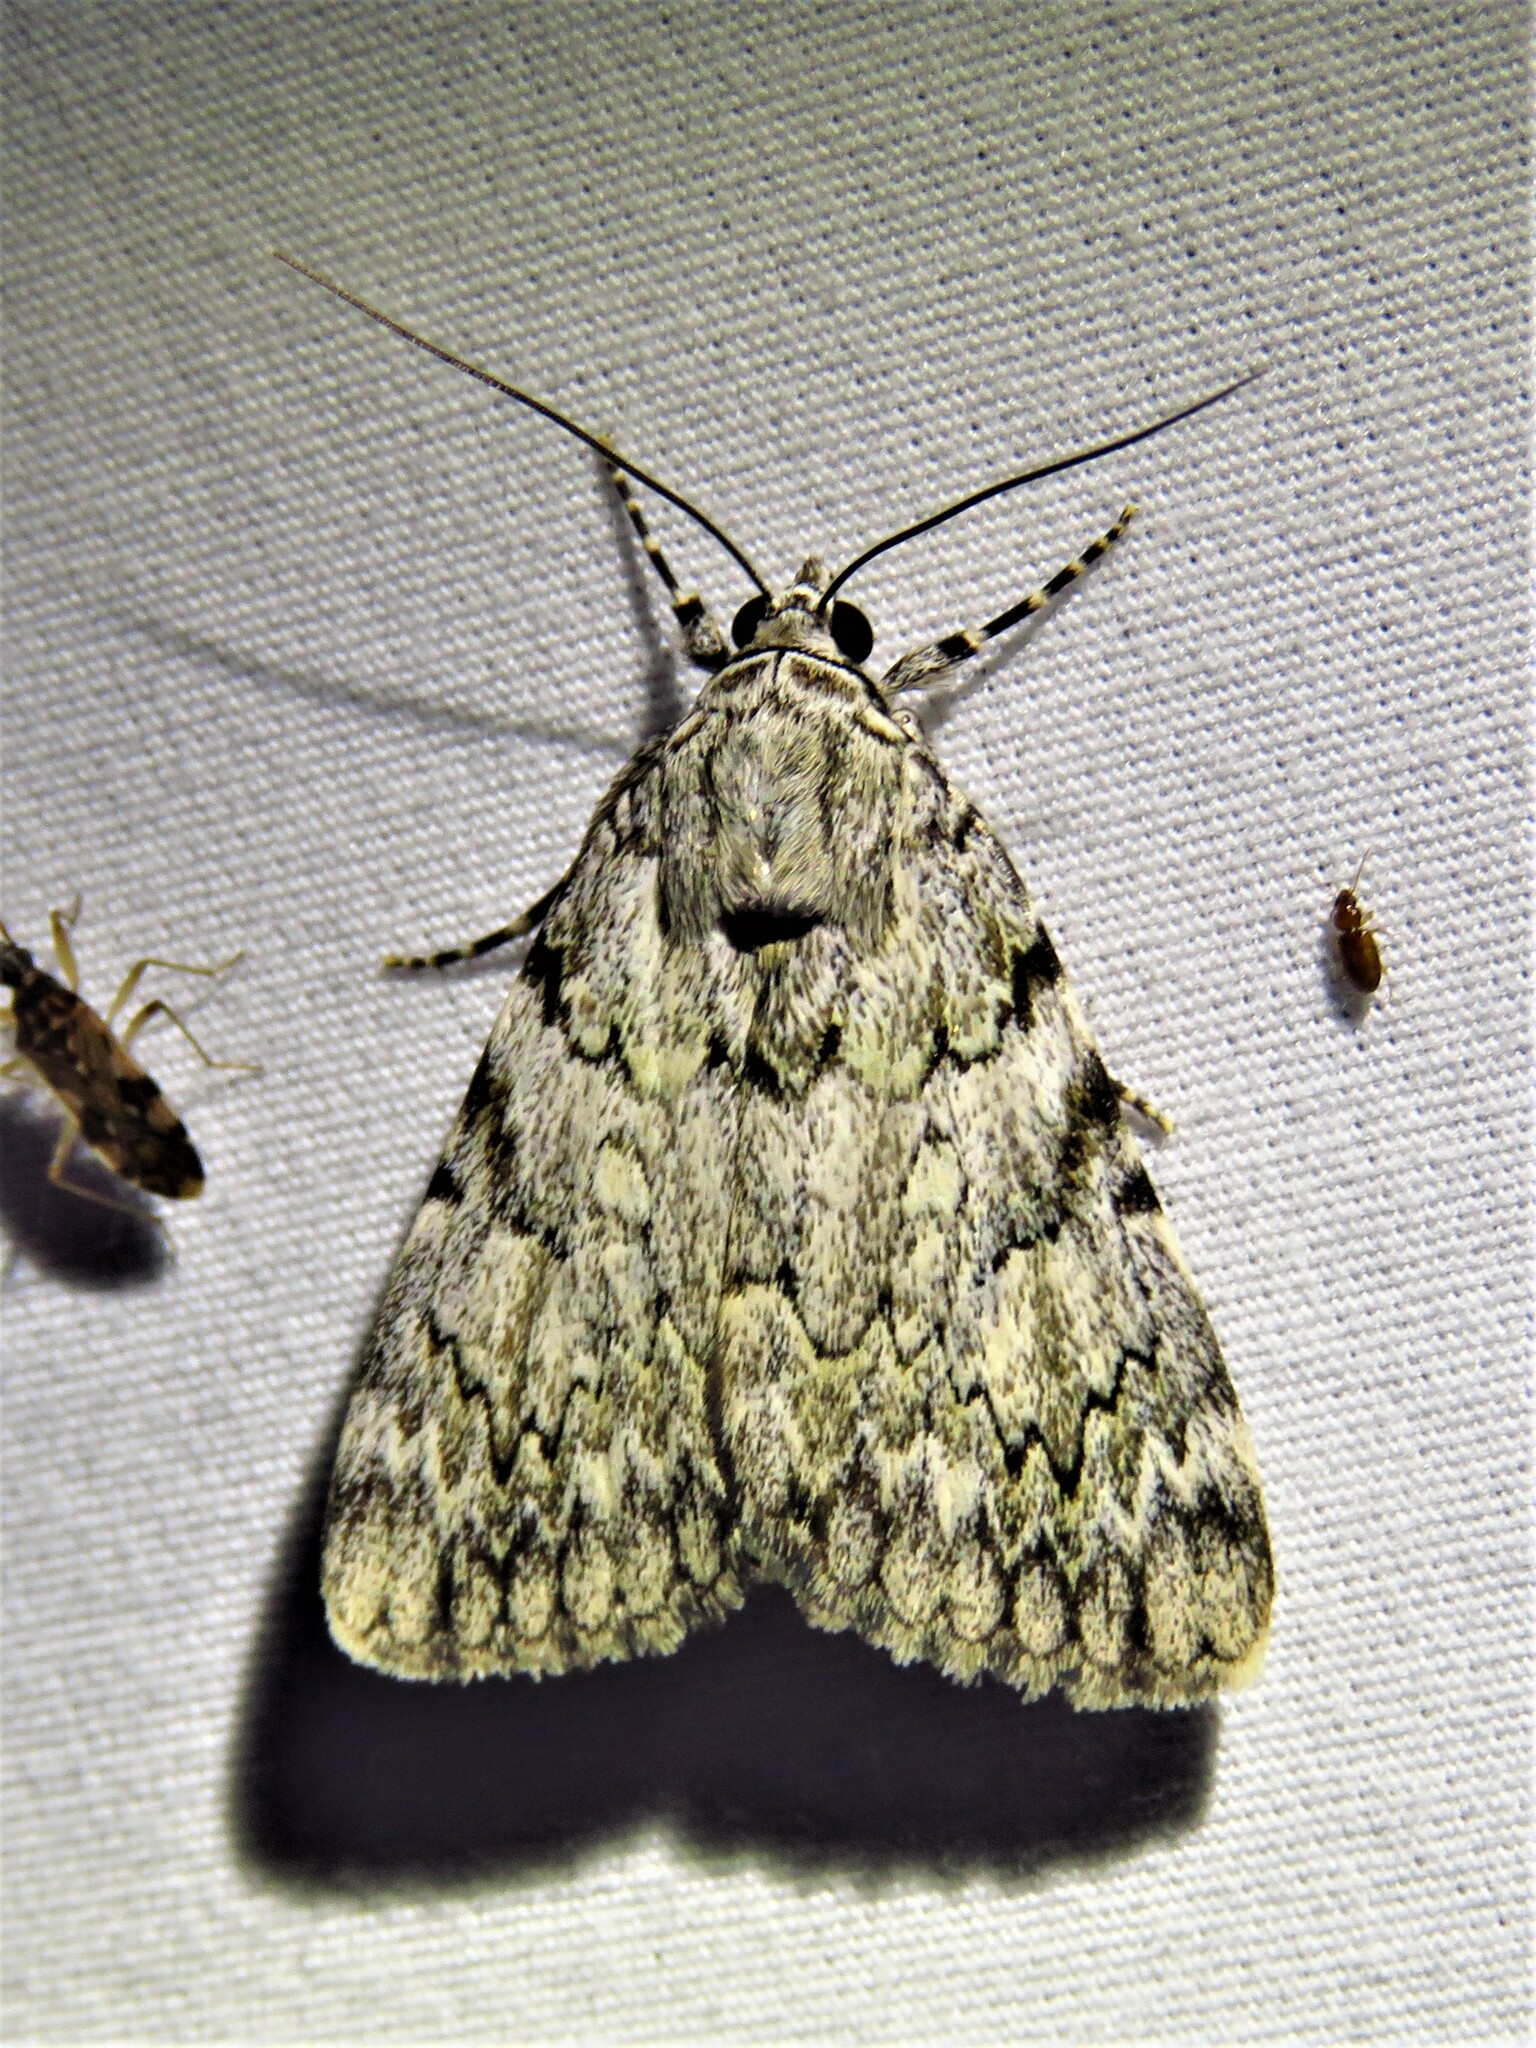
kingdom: Animalia
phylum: Arthropoda
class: Insecta
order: Lepidoptera
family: Erebidae
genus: Catocala
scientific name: Catocala amica
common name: Girlfriend underwing
